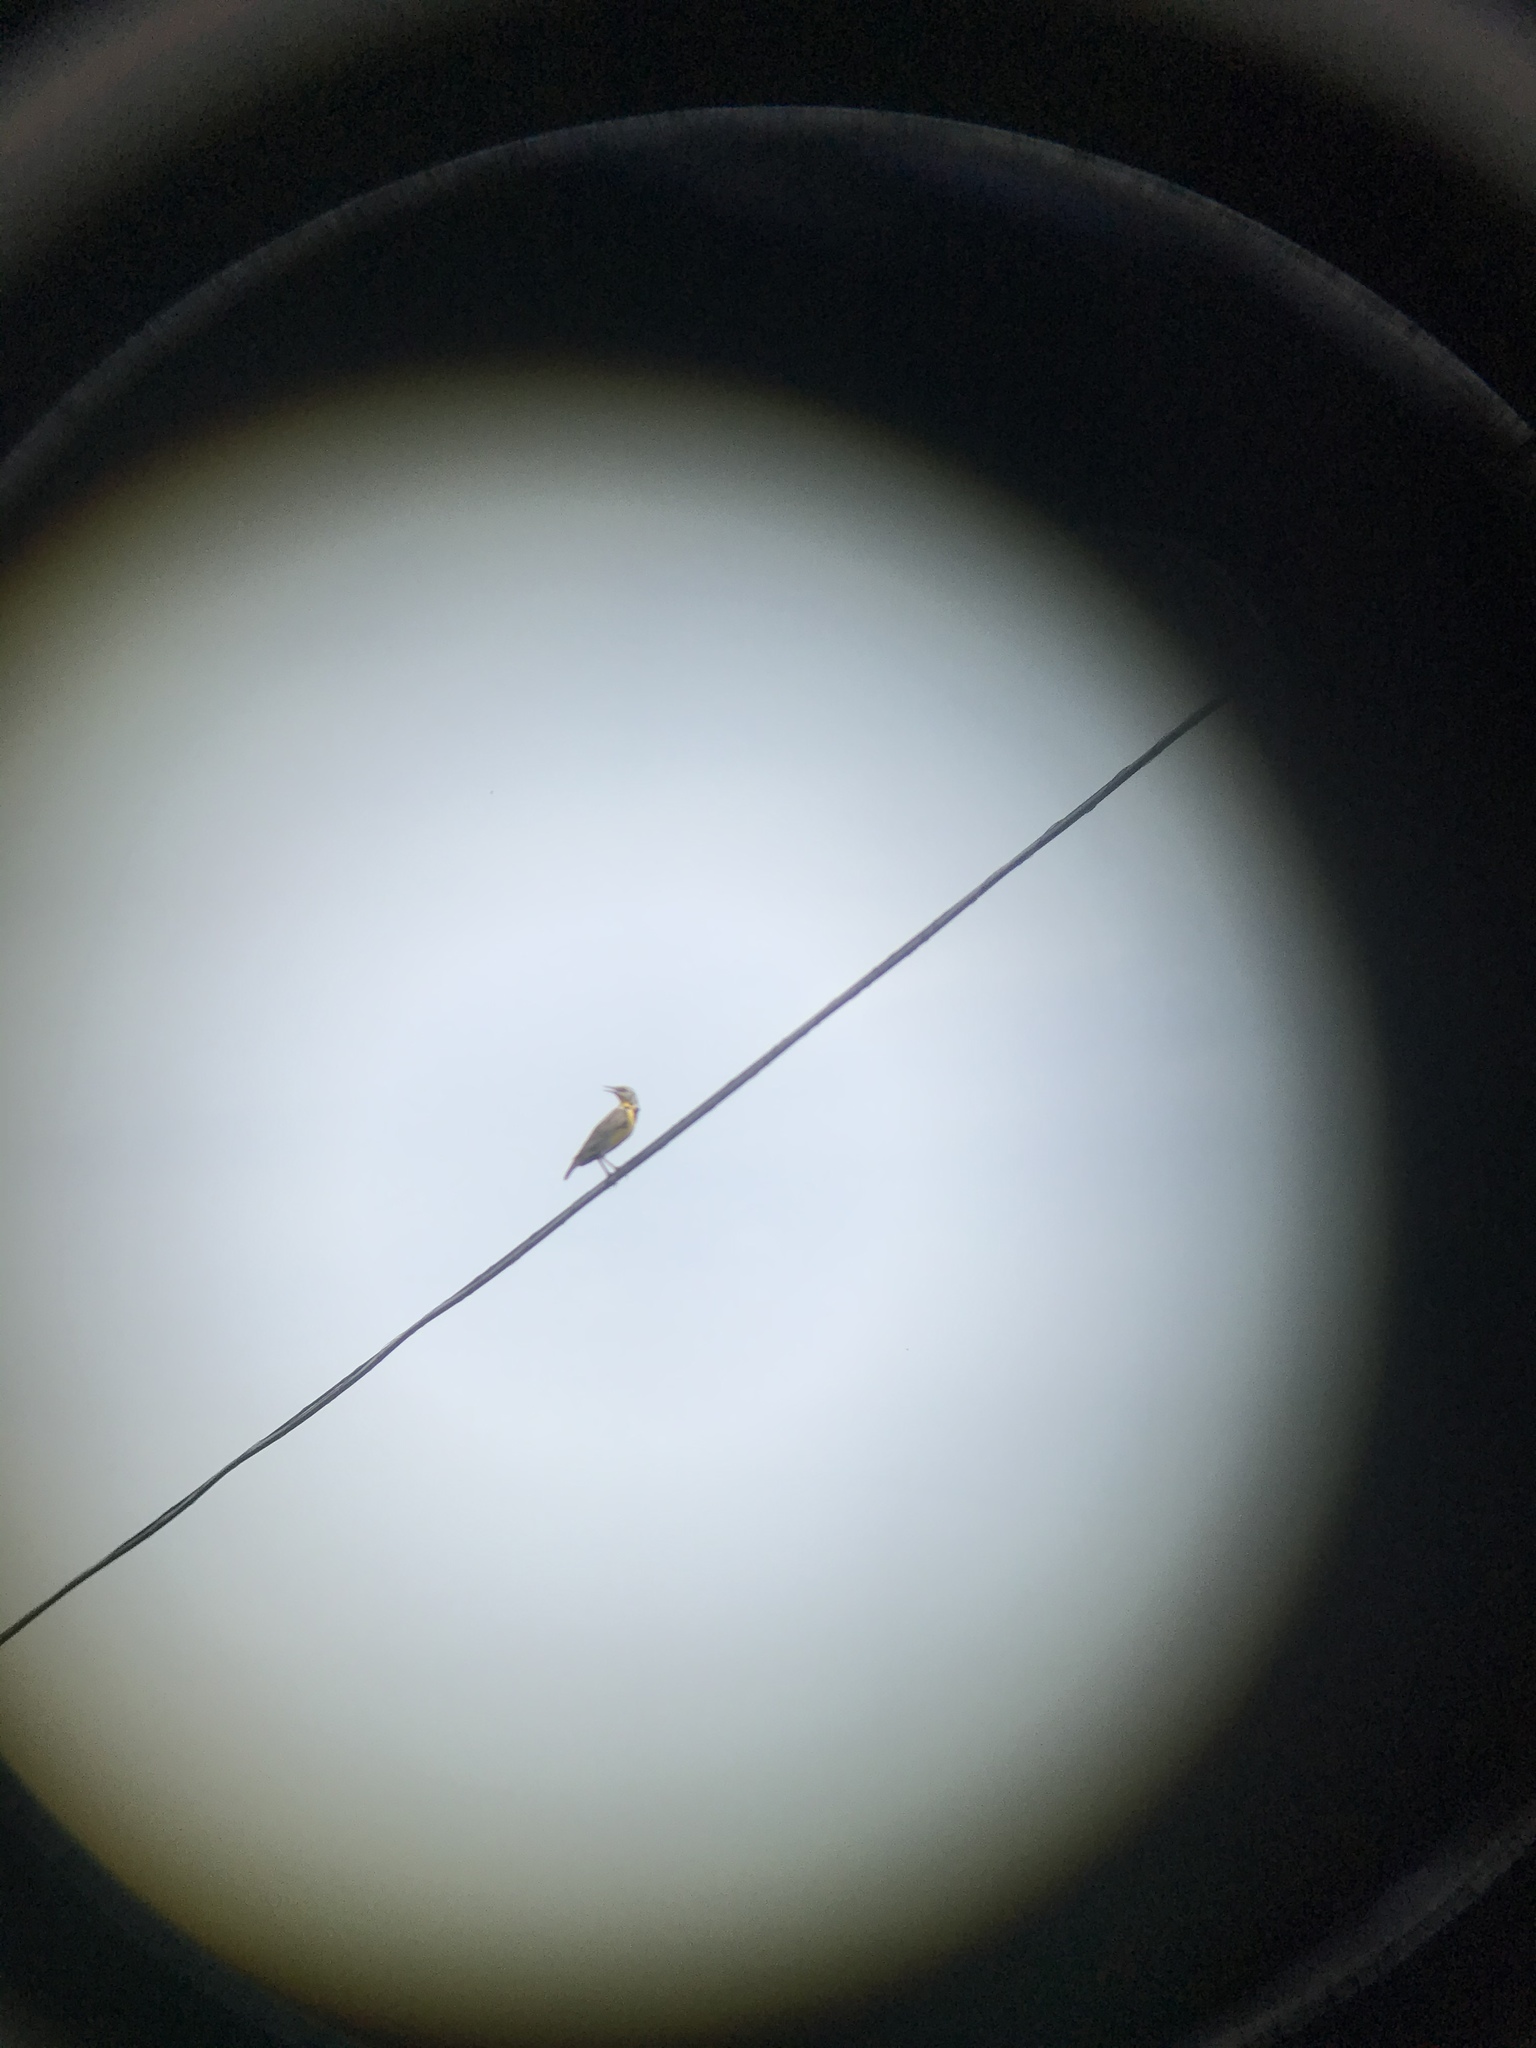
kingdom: Animalia
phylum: Chordata
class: Aves
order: Passeriformes
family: Icteridae
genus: Sturnella
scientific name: Sturnella neglecta
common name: Western meadowlark
